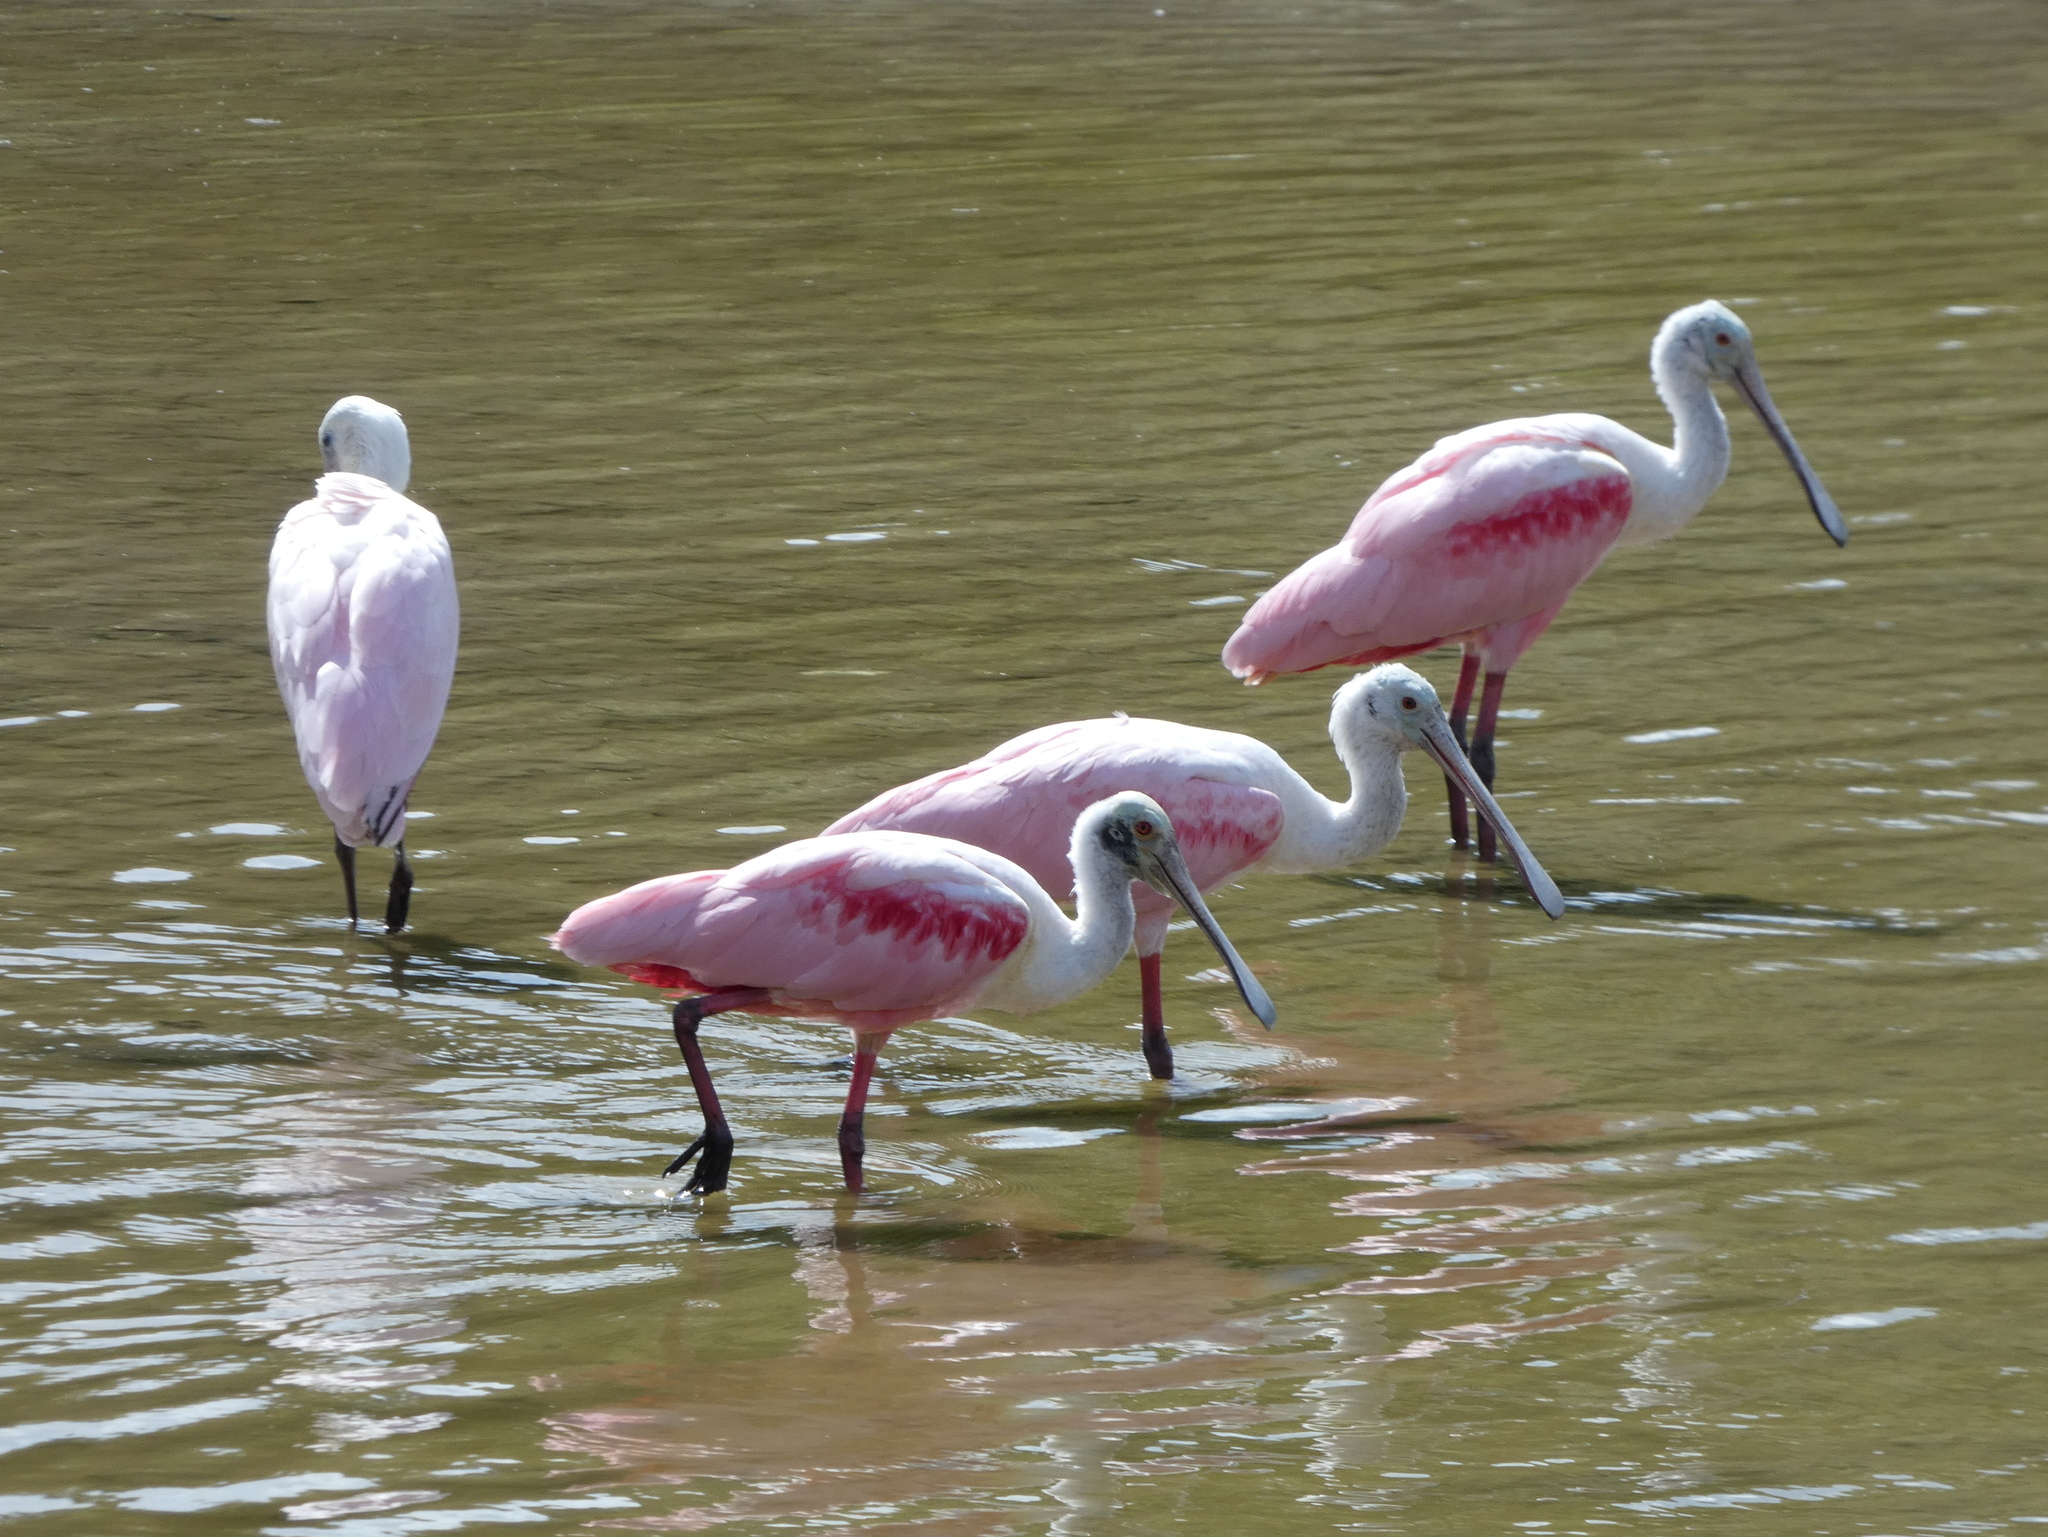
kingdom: Animalia
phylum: Chordata
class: Aves
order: Pelecaniformes
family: Threskiornithidae
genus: Platalea
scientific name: Platalea ajaja
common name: Roseate spoonbill
